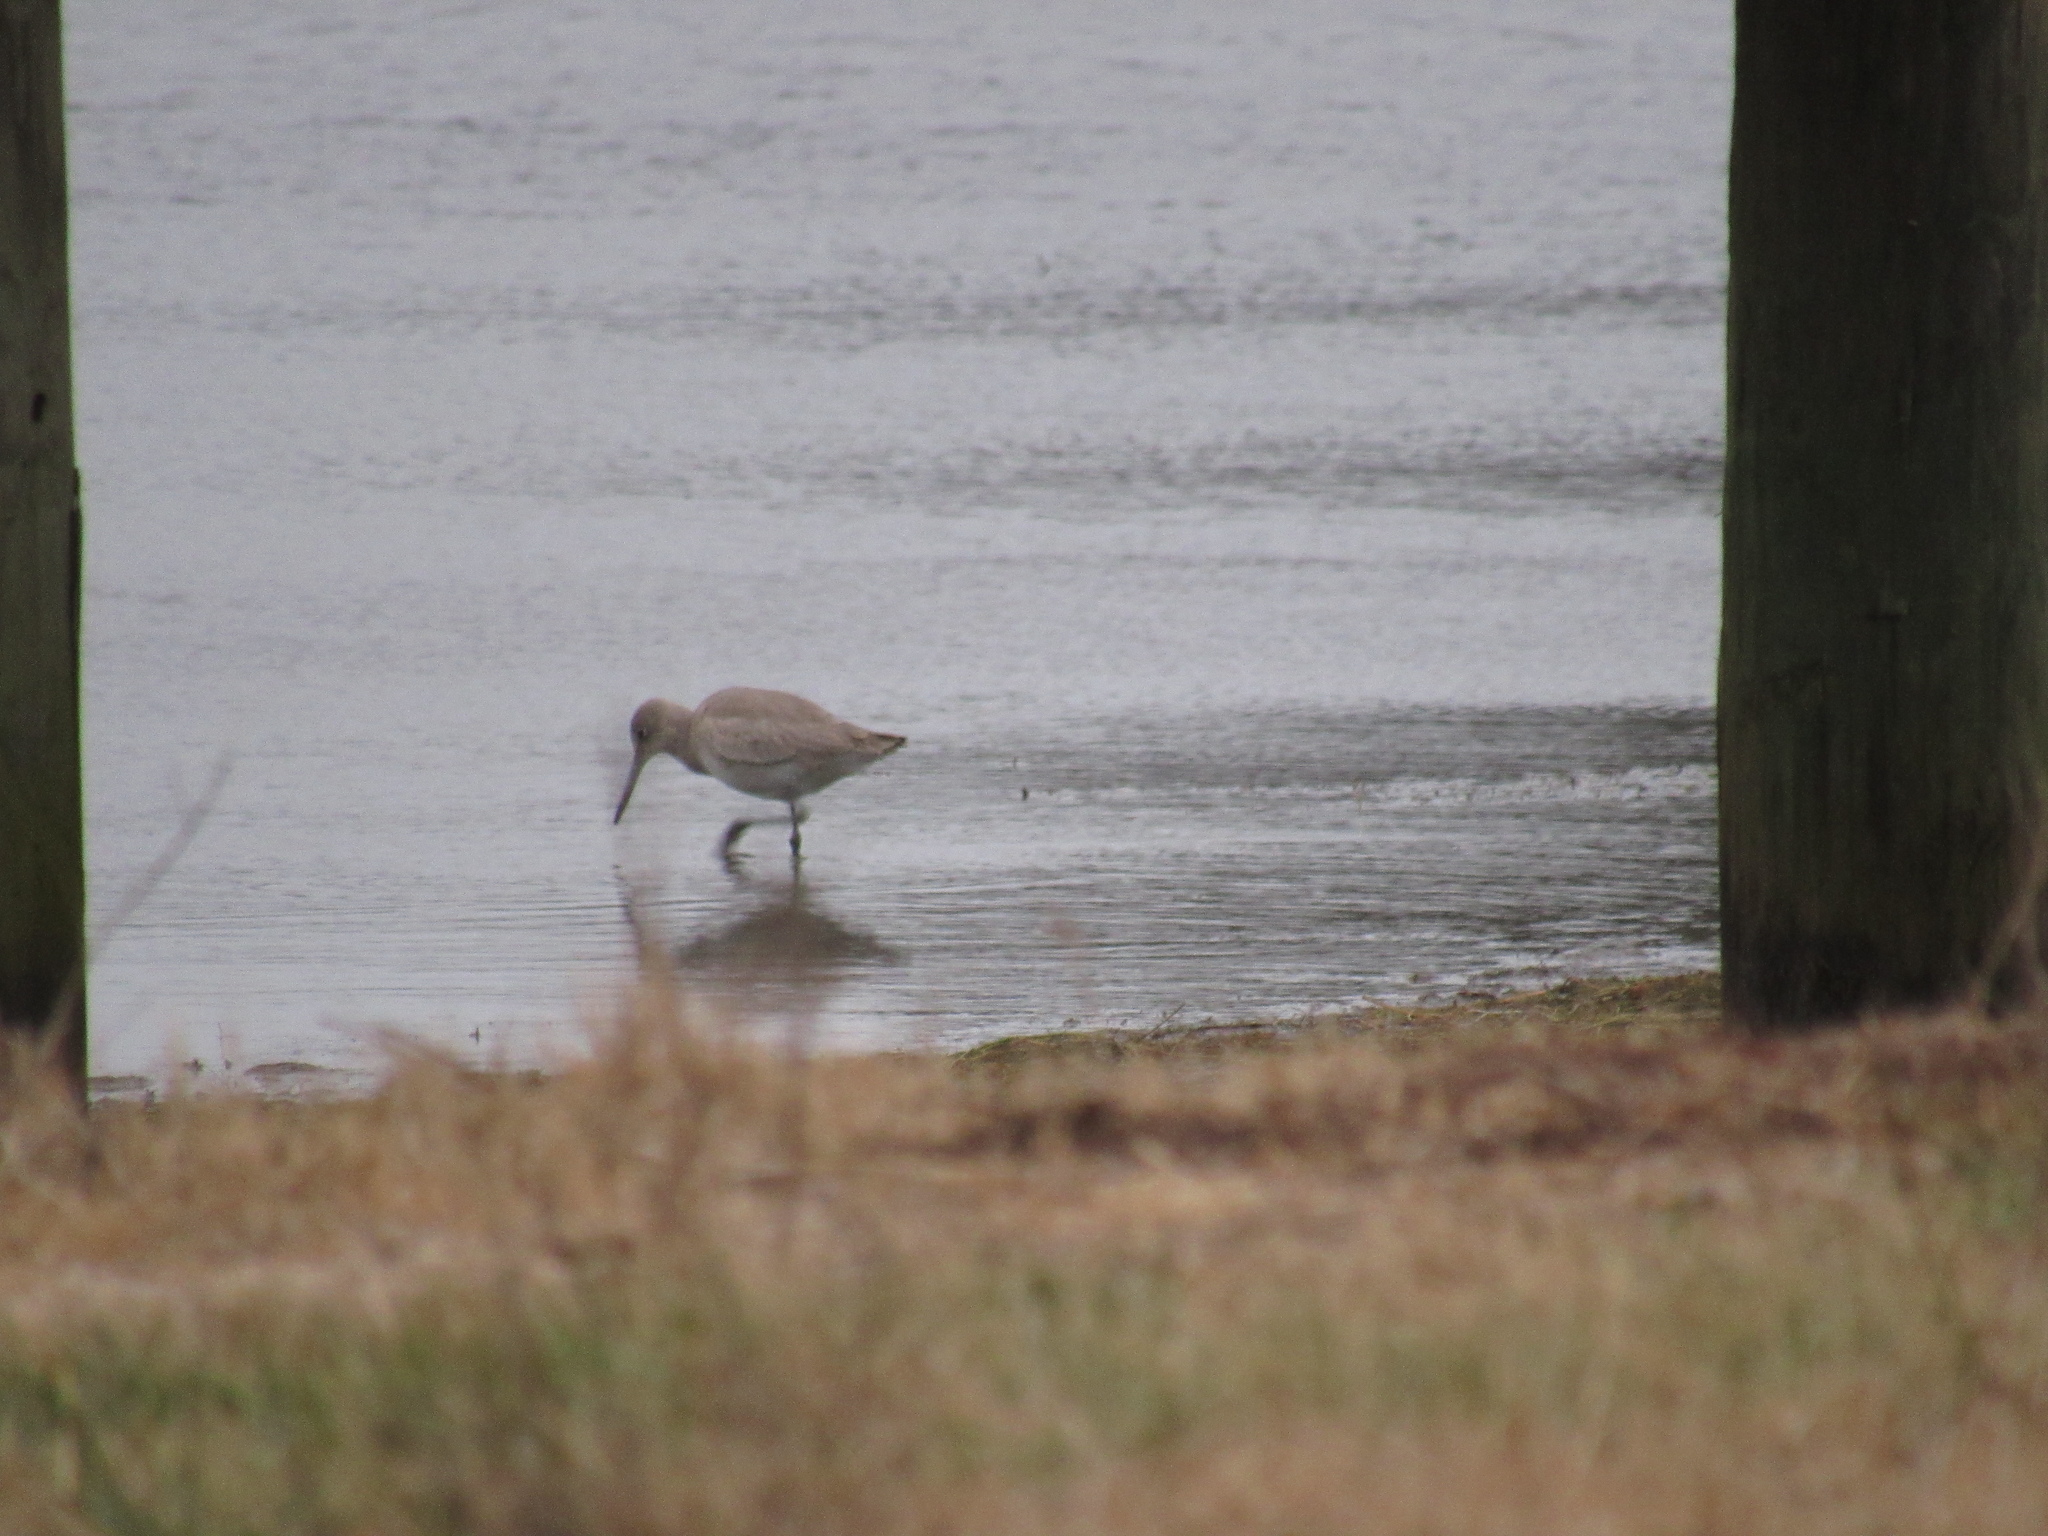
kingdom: Animalia
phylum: Chordata
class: Aves
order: Charadriiformes
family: Scolopacidae
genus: Tringa
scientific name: Tringa semipalmata
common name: Willet
